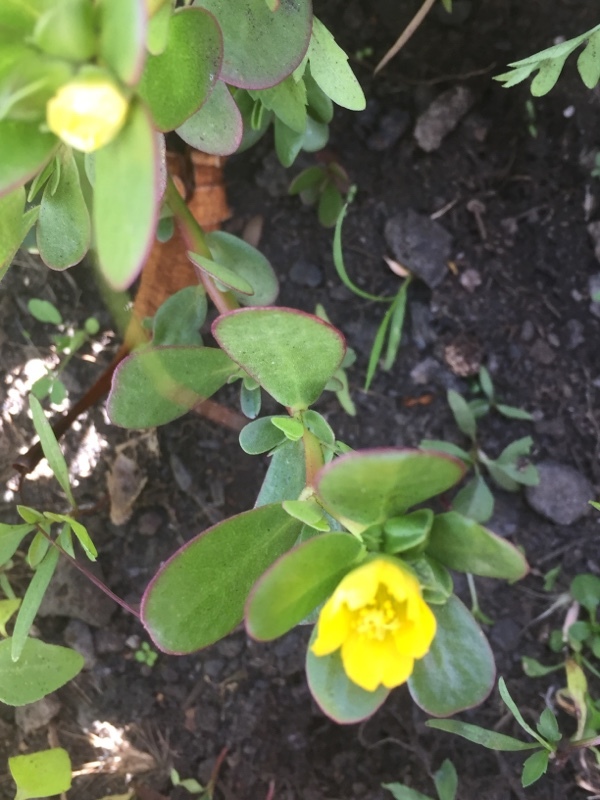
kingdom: Plantae
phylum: Tracheophyta
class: Magnoliopsida
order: Caryophyllales
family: Portulacaceae
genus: Portulaca
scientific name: Portulaca oleracea
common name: Common purslane
